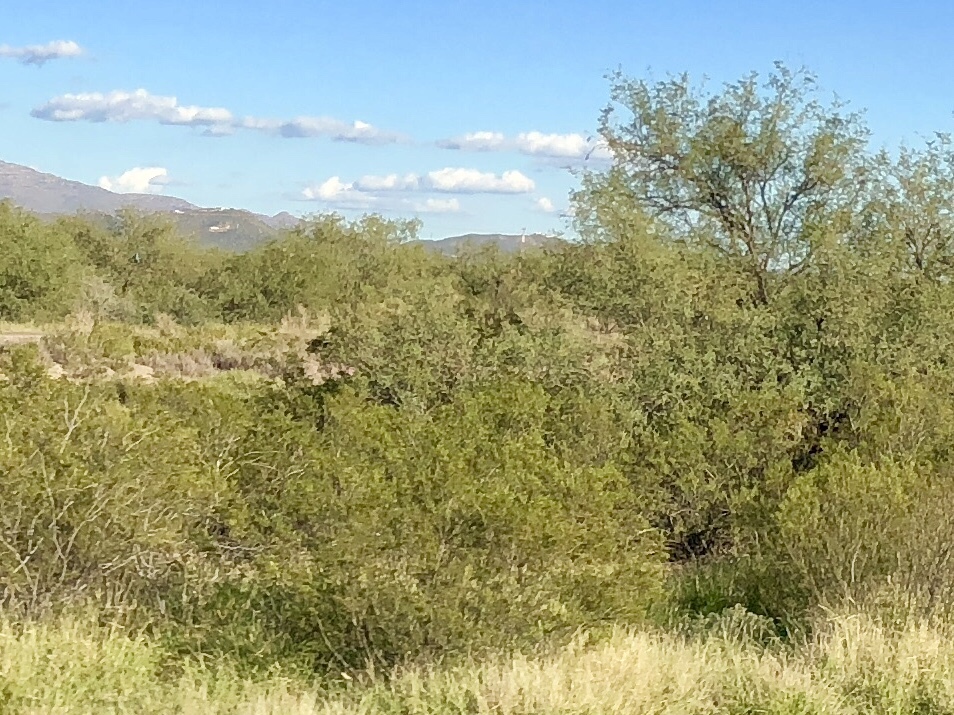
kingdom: Plantae
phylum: Tracheophyta
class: Magnoliopsida
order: Zygophyllales
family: Zygophyllaceae
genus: Larrea
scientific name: Larrea tridentata
